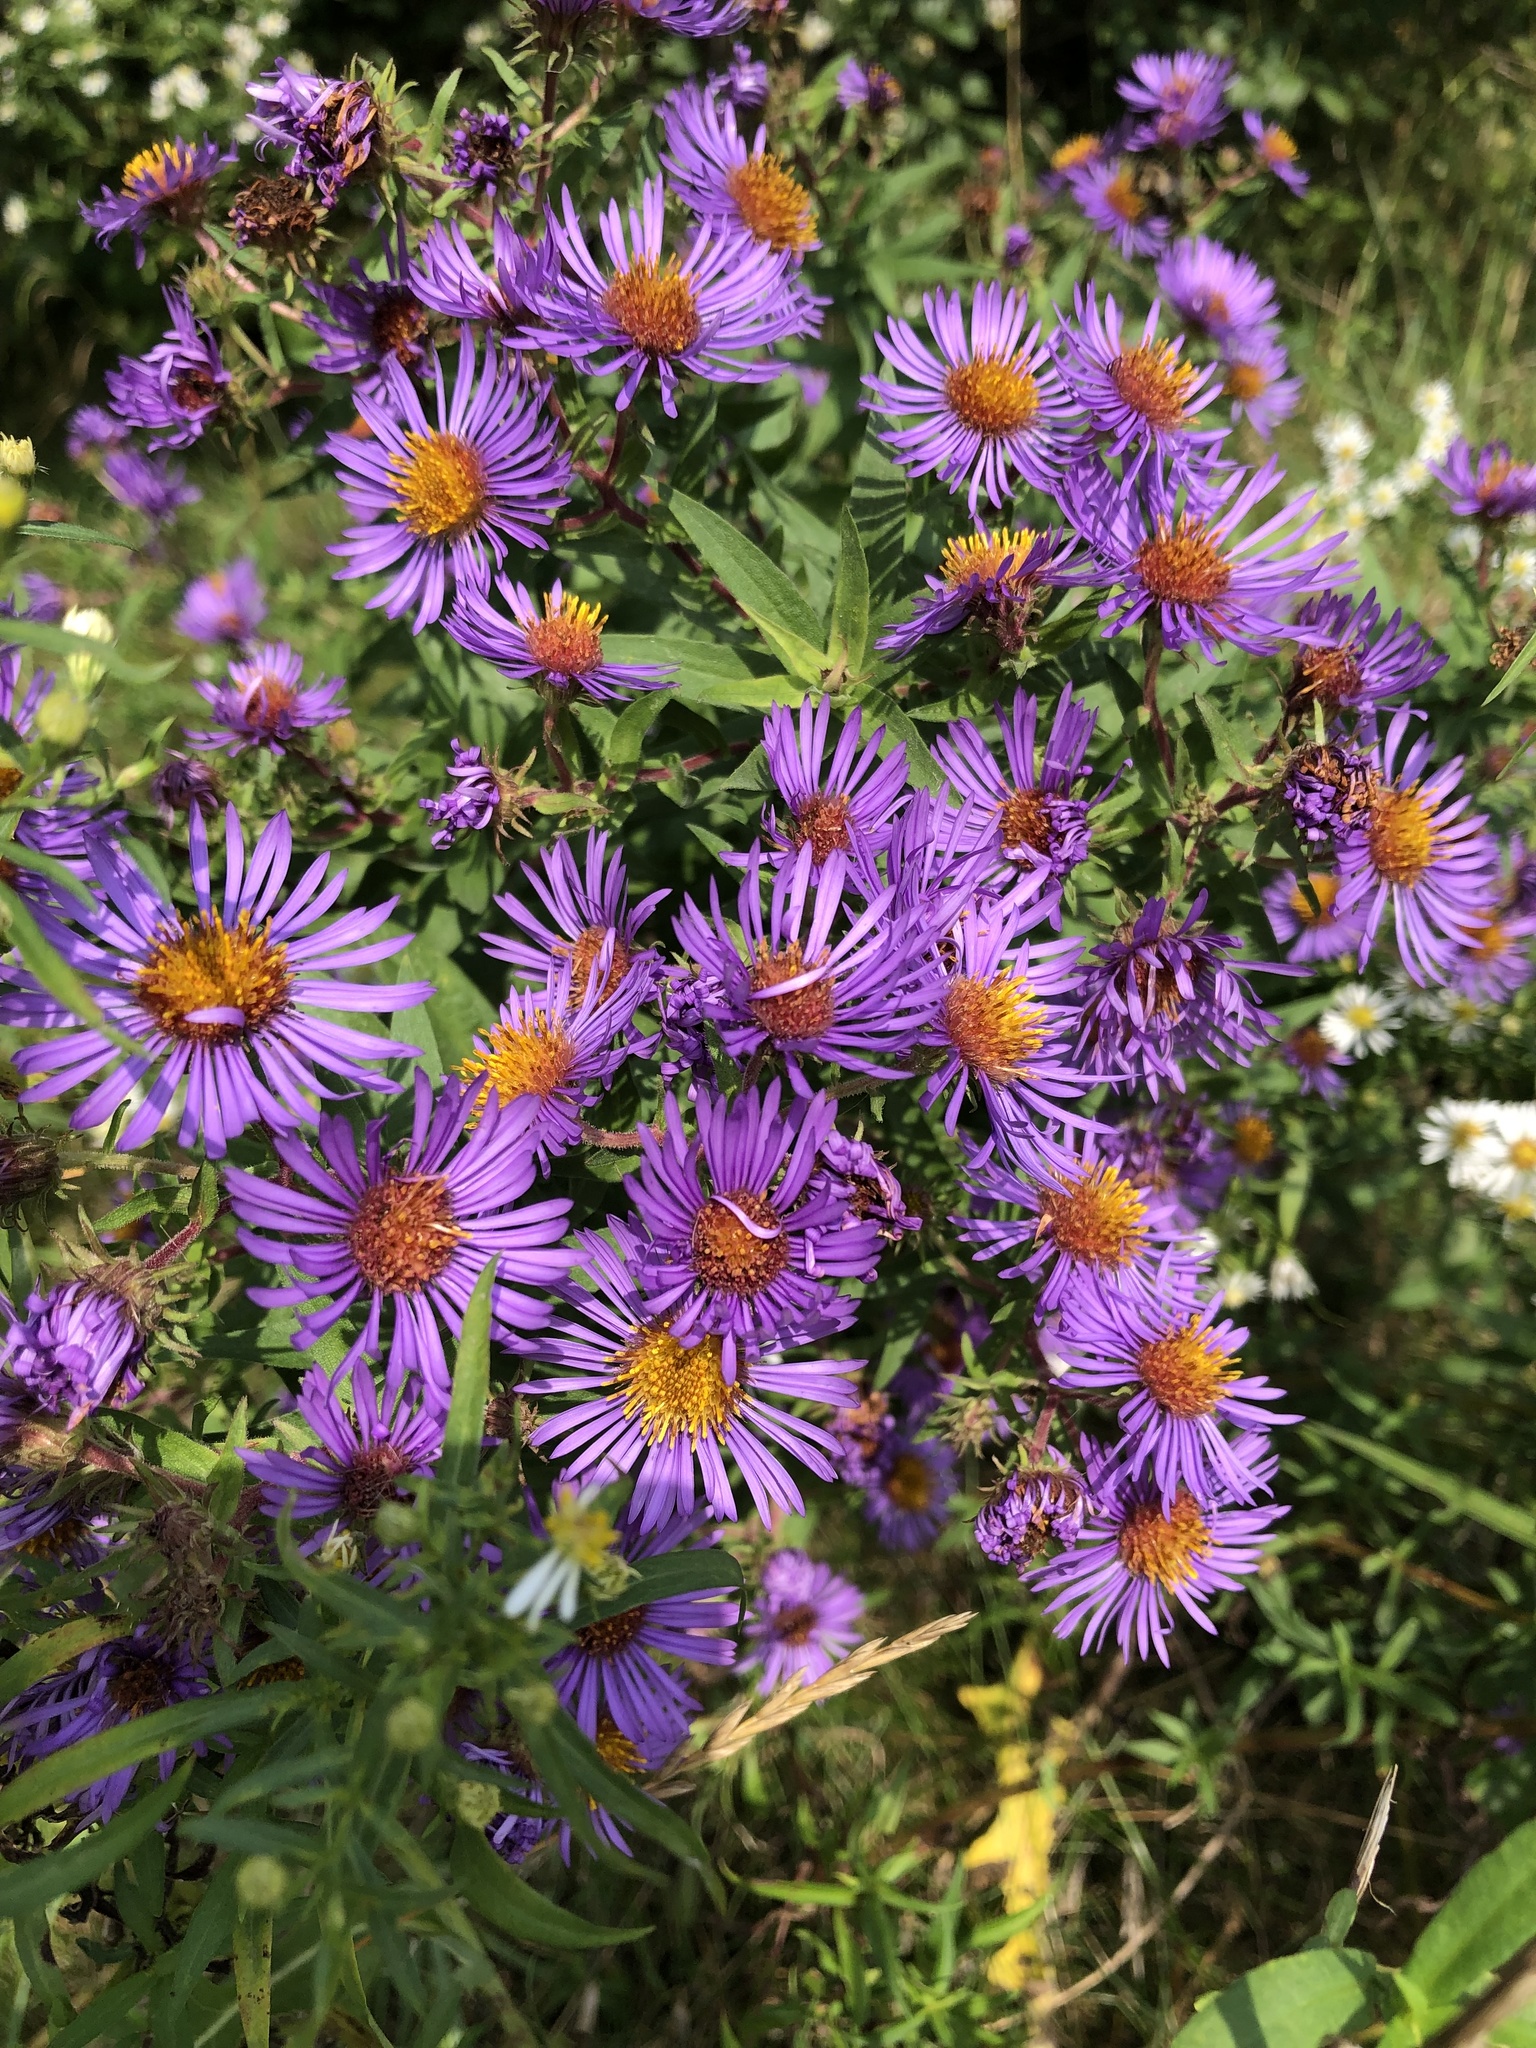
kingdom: Plantae
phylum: Tracheophyta
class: Magnoliopsida
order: Asterales
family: Asteraceae
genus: Symphyotrichum
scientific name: Symphyotrichum novae-angliae
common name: Michaelmas daisy
